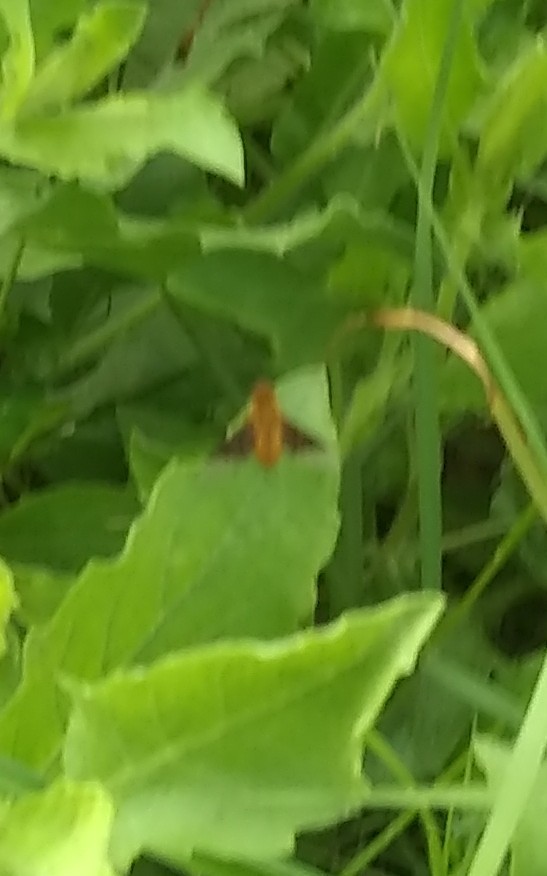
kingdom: Animalia
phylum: Arthropoda
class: Insecta
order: Diptera
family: Bombyliidae
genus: Chrysanthrax
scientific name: Chrysanthrax cypris
